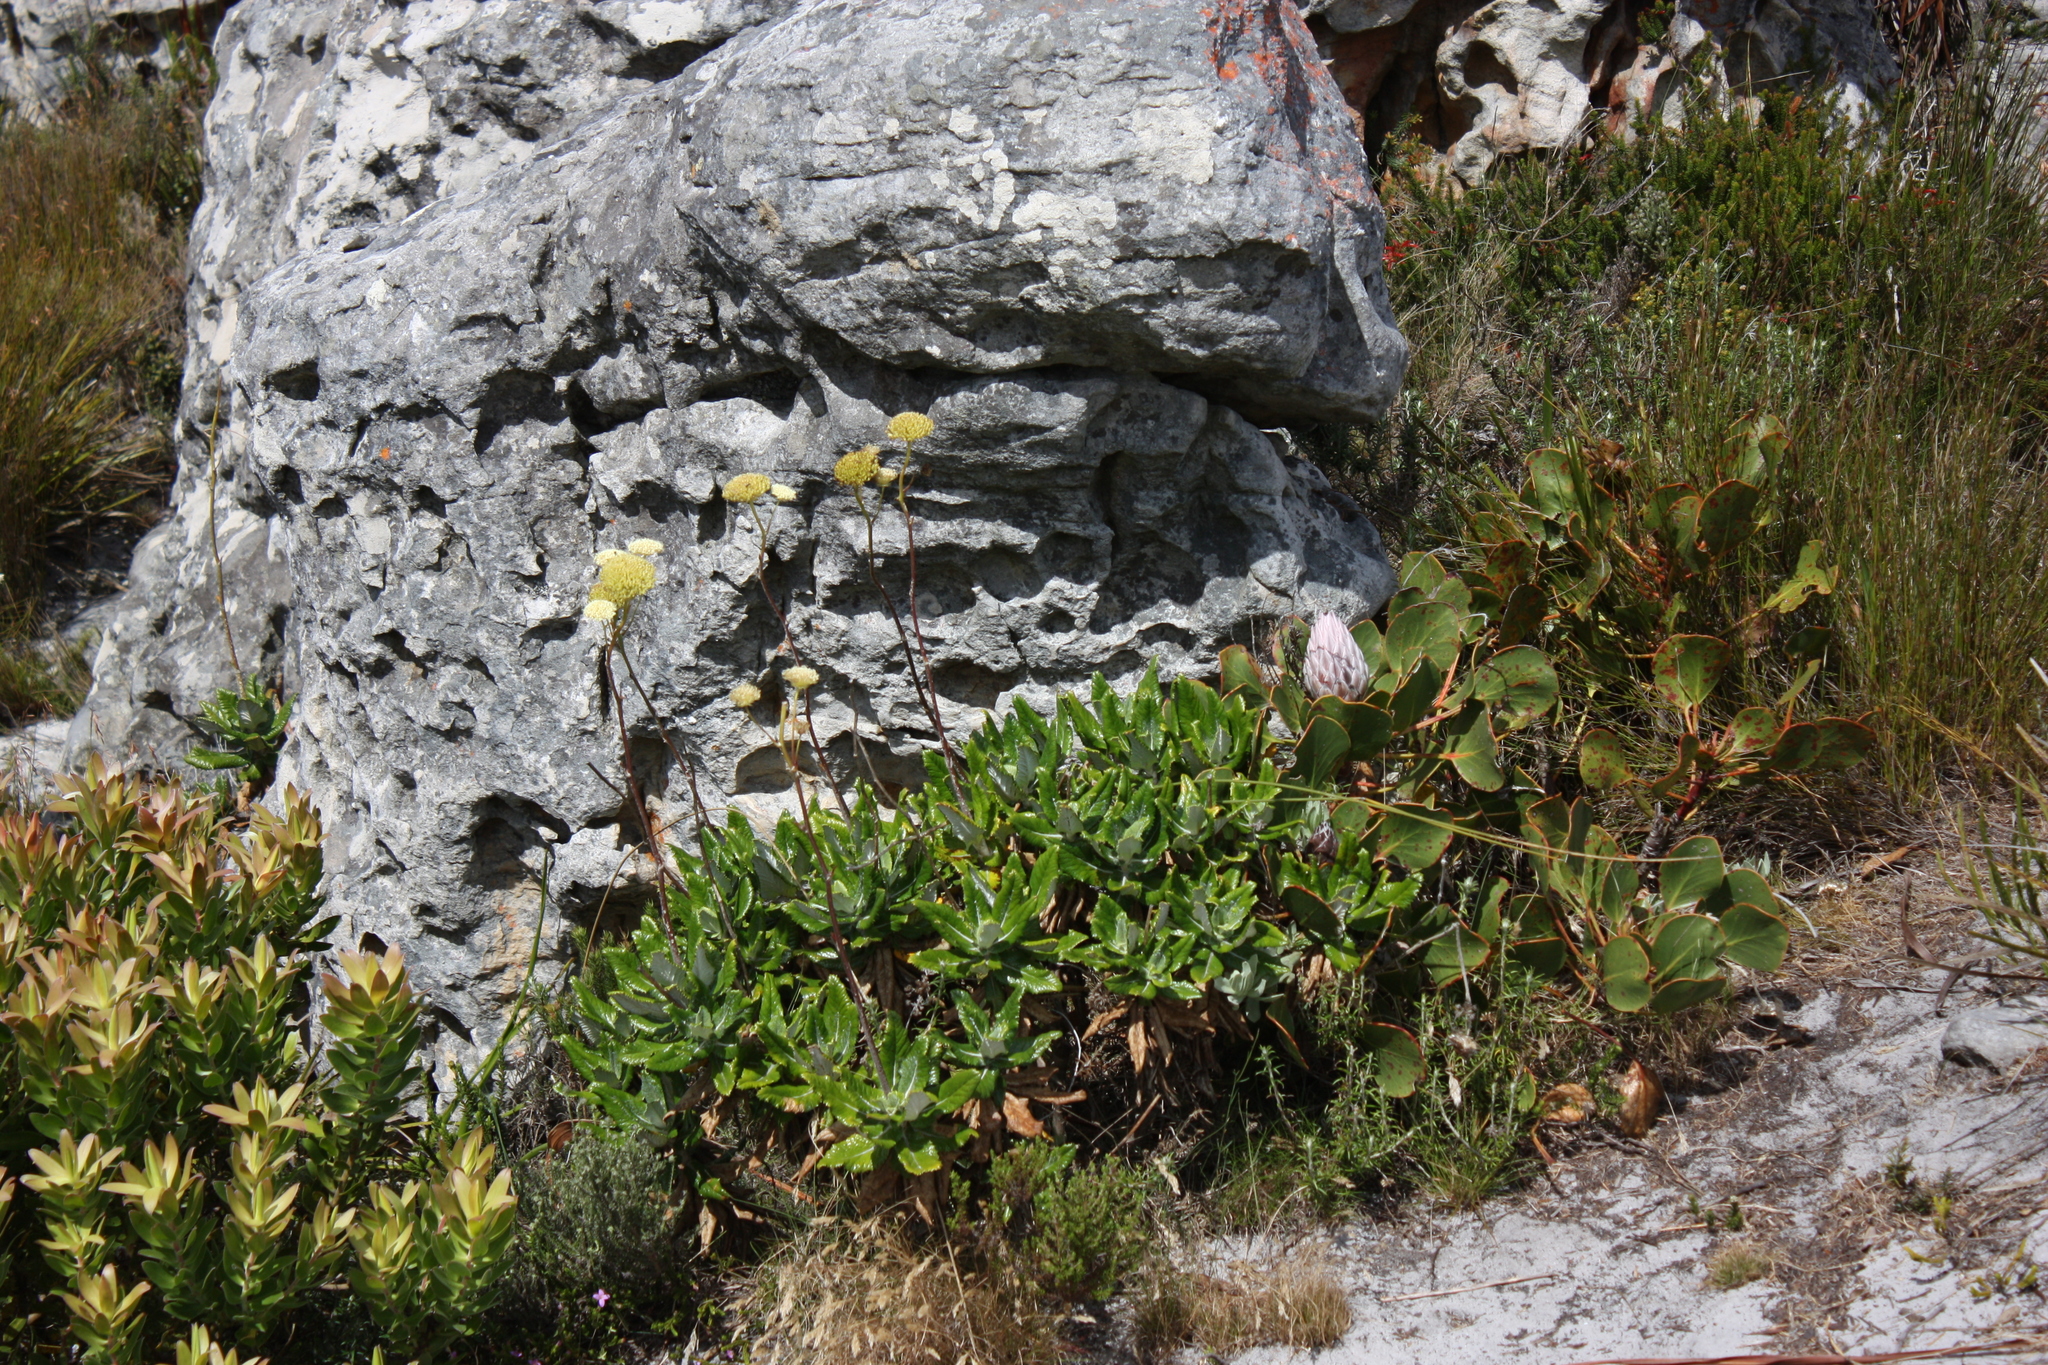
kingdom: Plantae
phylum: Tracheophyta
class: Magnoliopsida
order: Proteales
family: Proteaceae
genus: Leucadendron
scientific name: Leucadendron laureolum
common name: Golden sunshinebush
